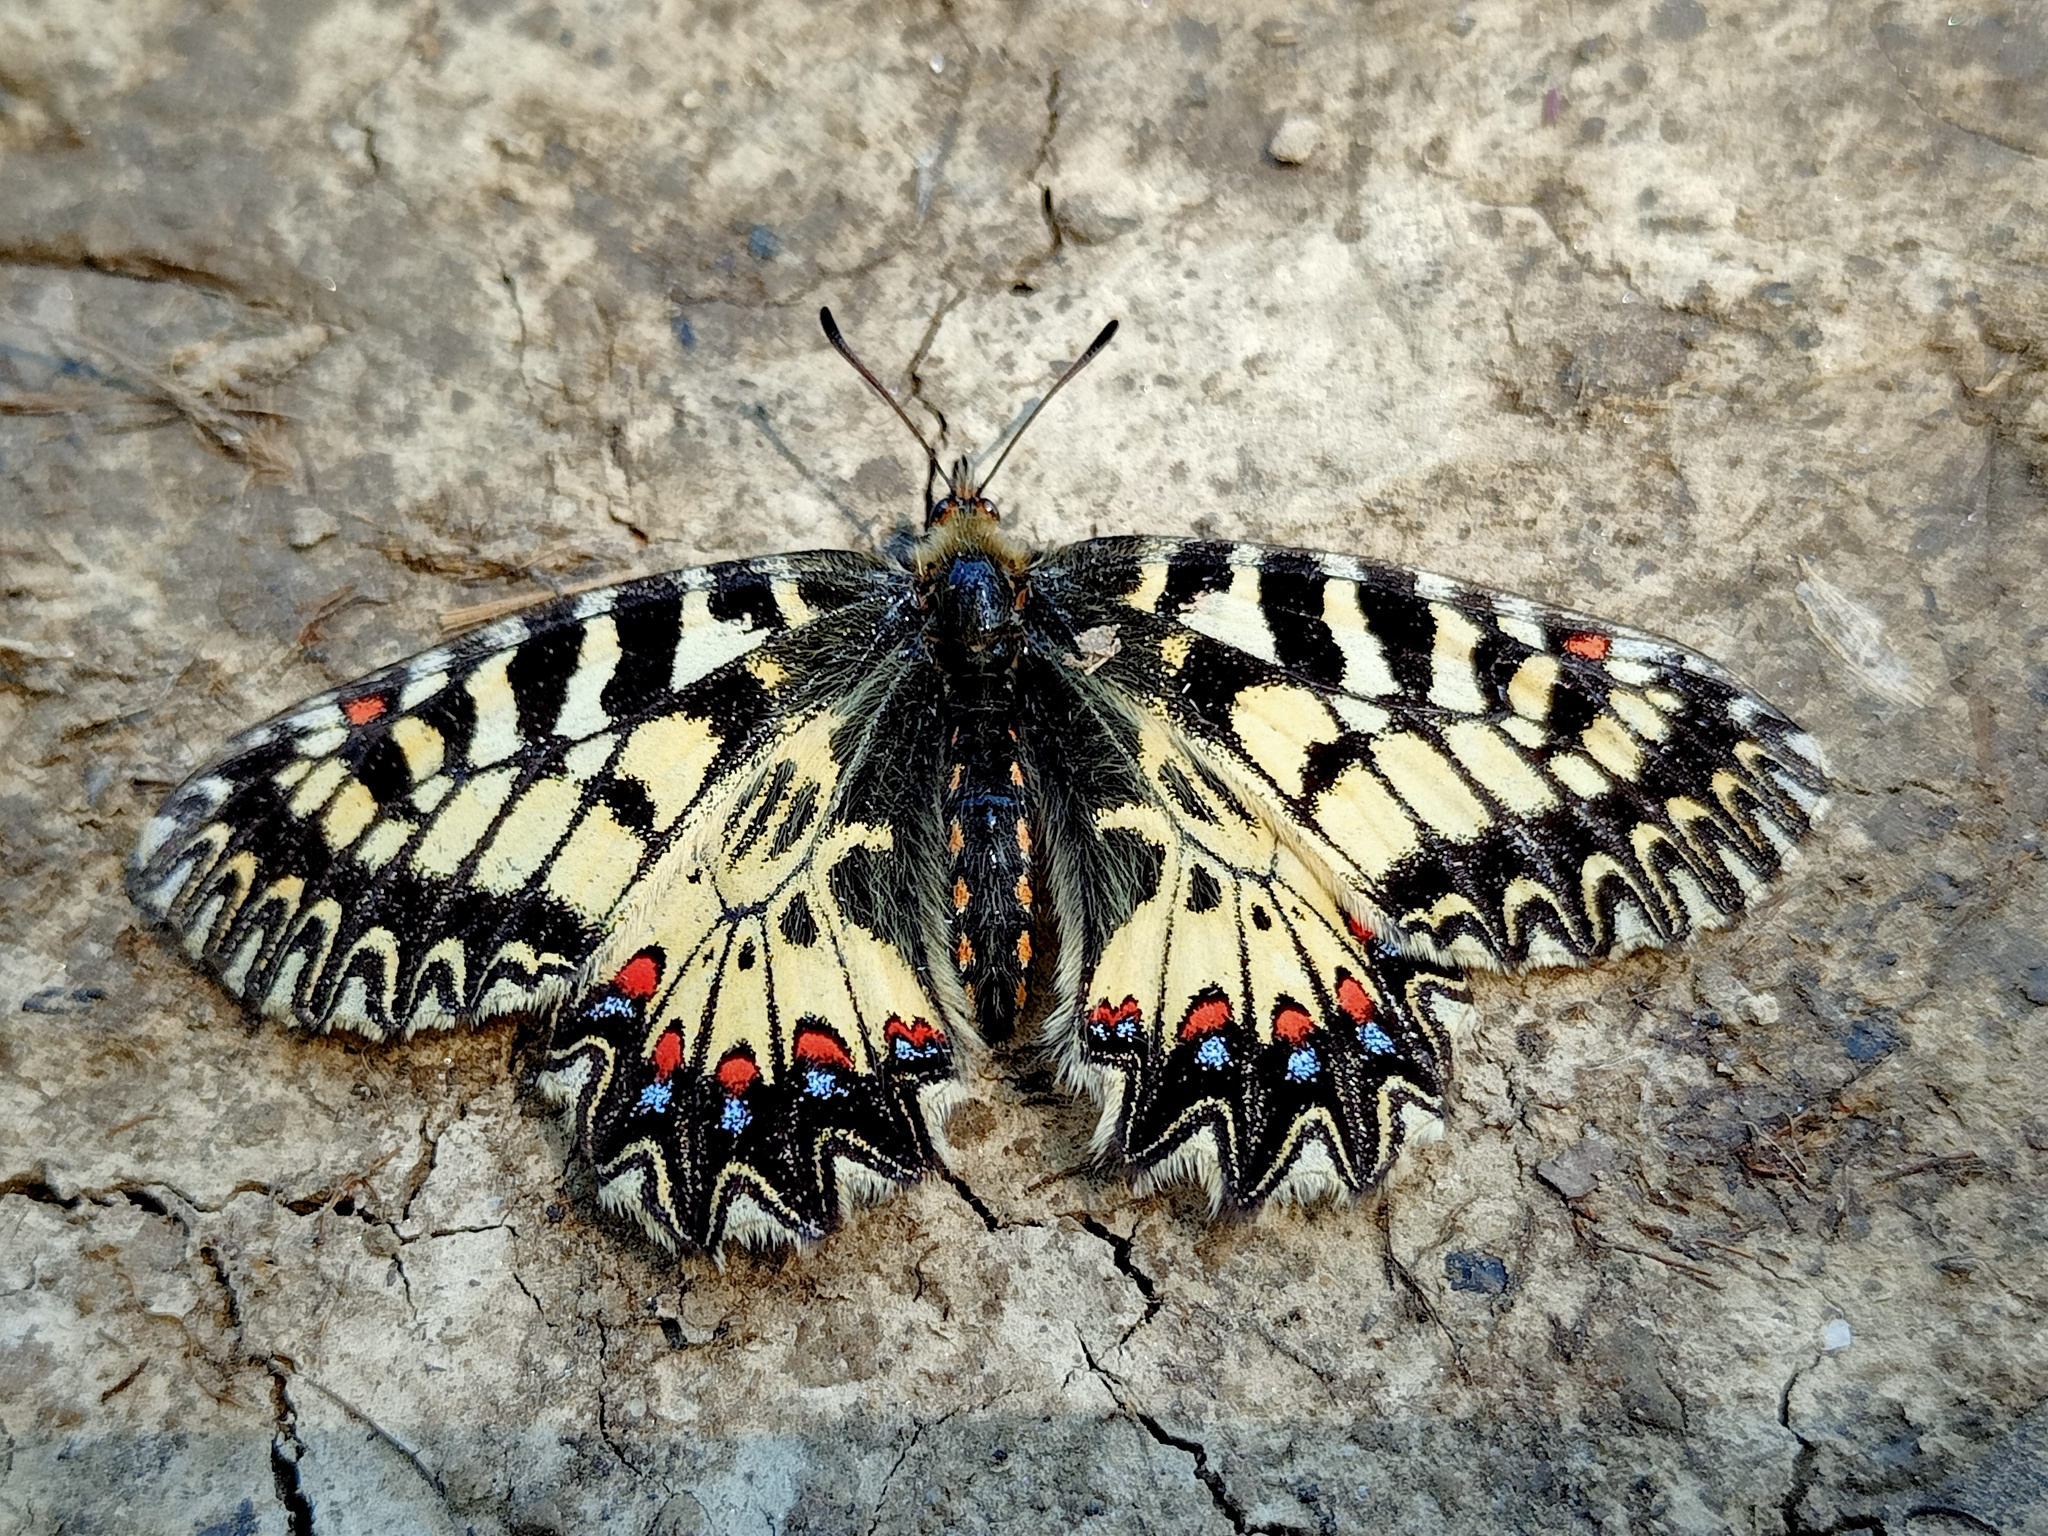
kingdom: Animalia
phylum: Arthropoda
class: Insecta
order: Lepidoptera
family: Papilionidae
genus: Zerynthia
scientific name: Zerynthia polyxena
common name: Southern festoon
